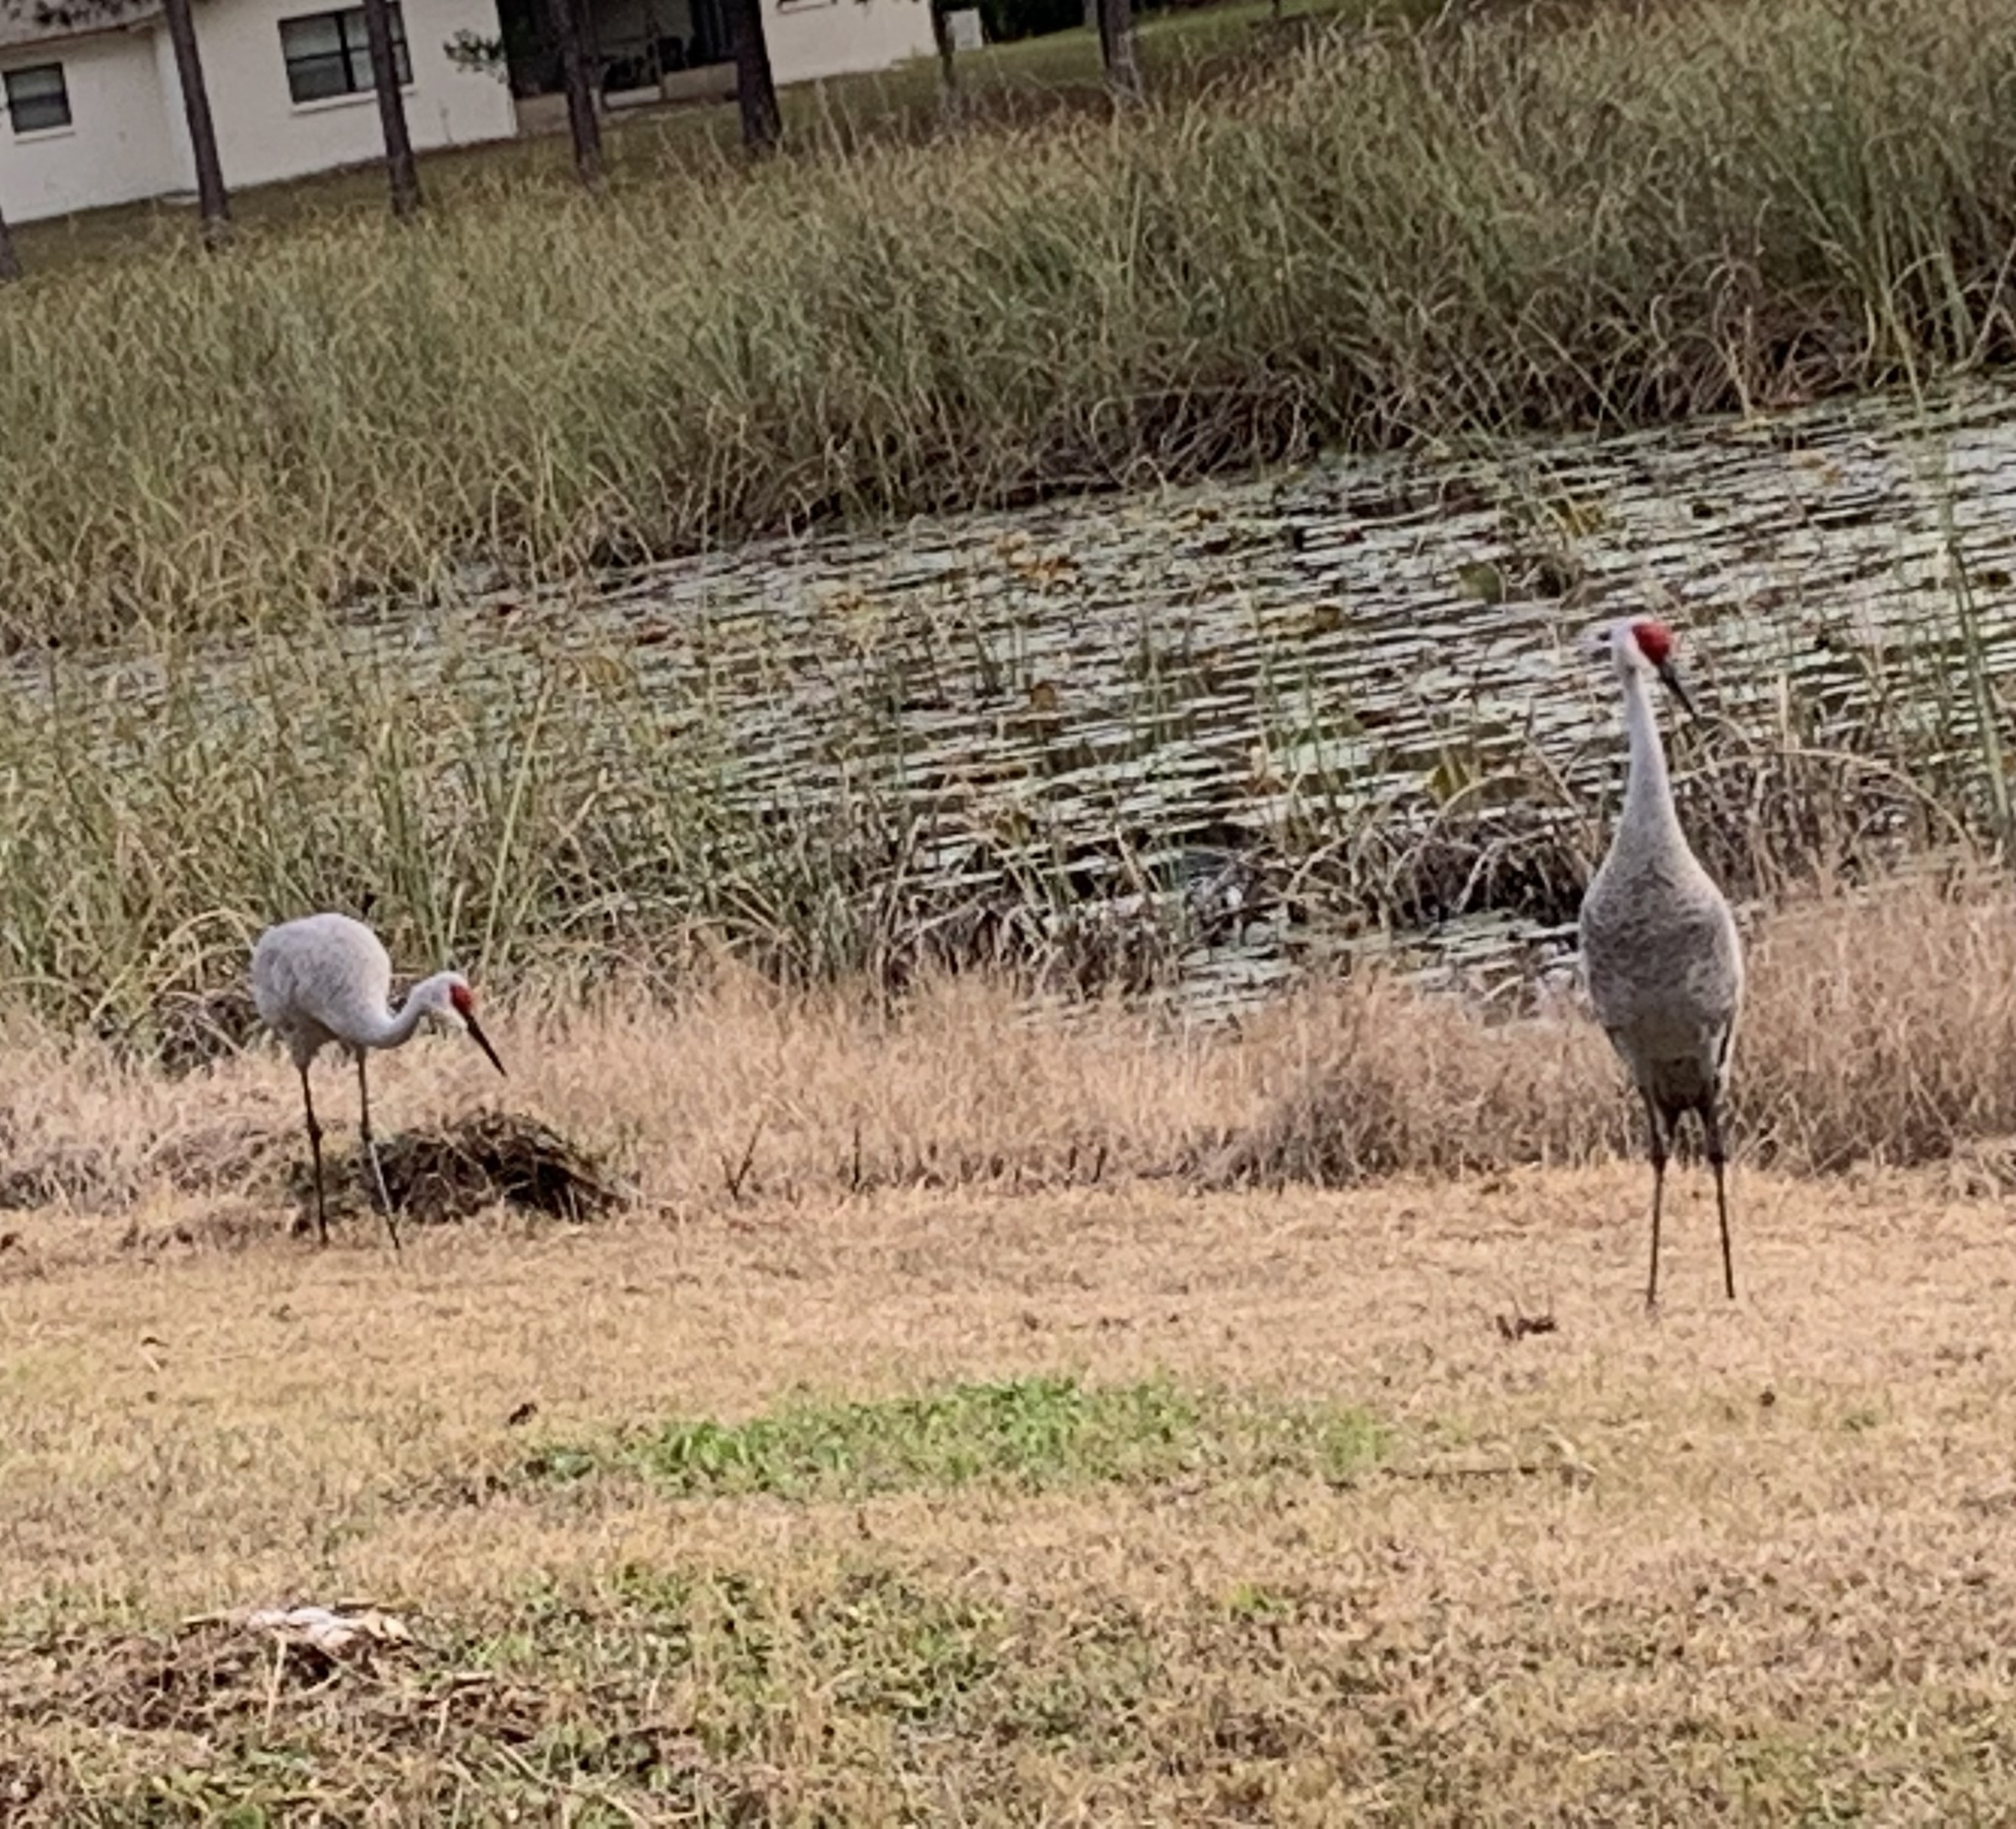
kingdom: Animalia
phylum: Chordata
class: Aves
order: Gruiformes
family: Gruidae
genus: Grus
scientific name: Grus canadensis
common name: Sandhill crane
